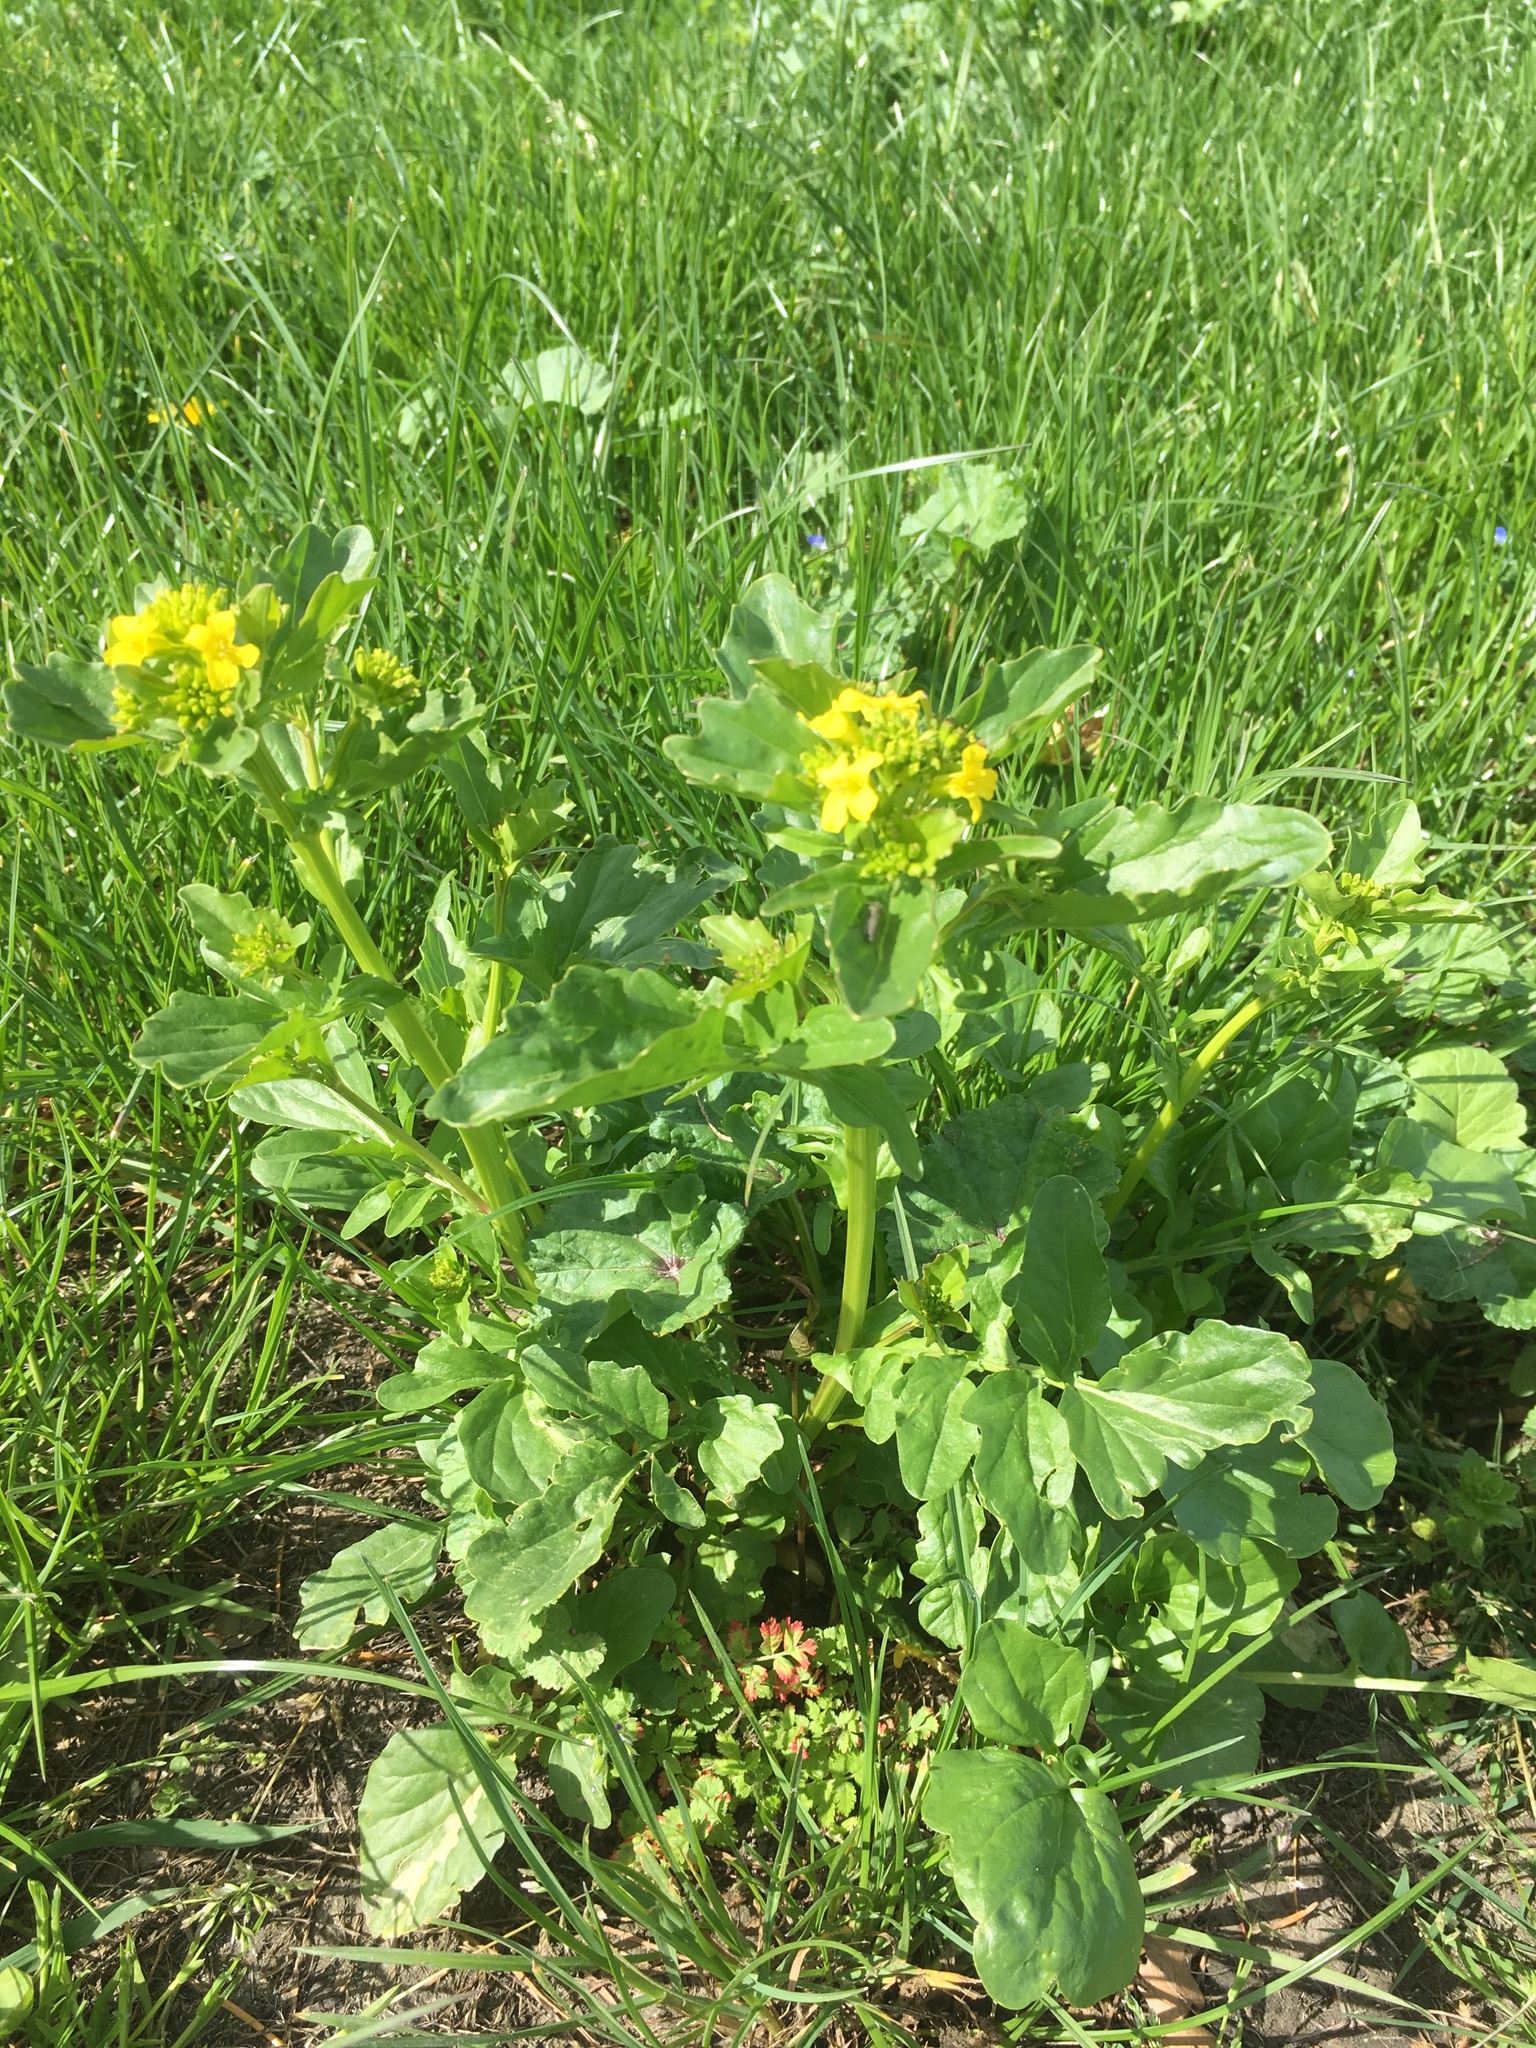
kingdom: Plantae
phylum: Tracheophyta
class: Magnoliopsida
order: Brassicales
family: Brassicaceae
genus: Barbarea
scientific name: Barbarea vulgaris
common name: Cressy-greens
